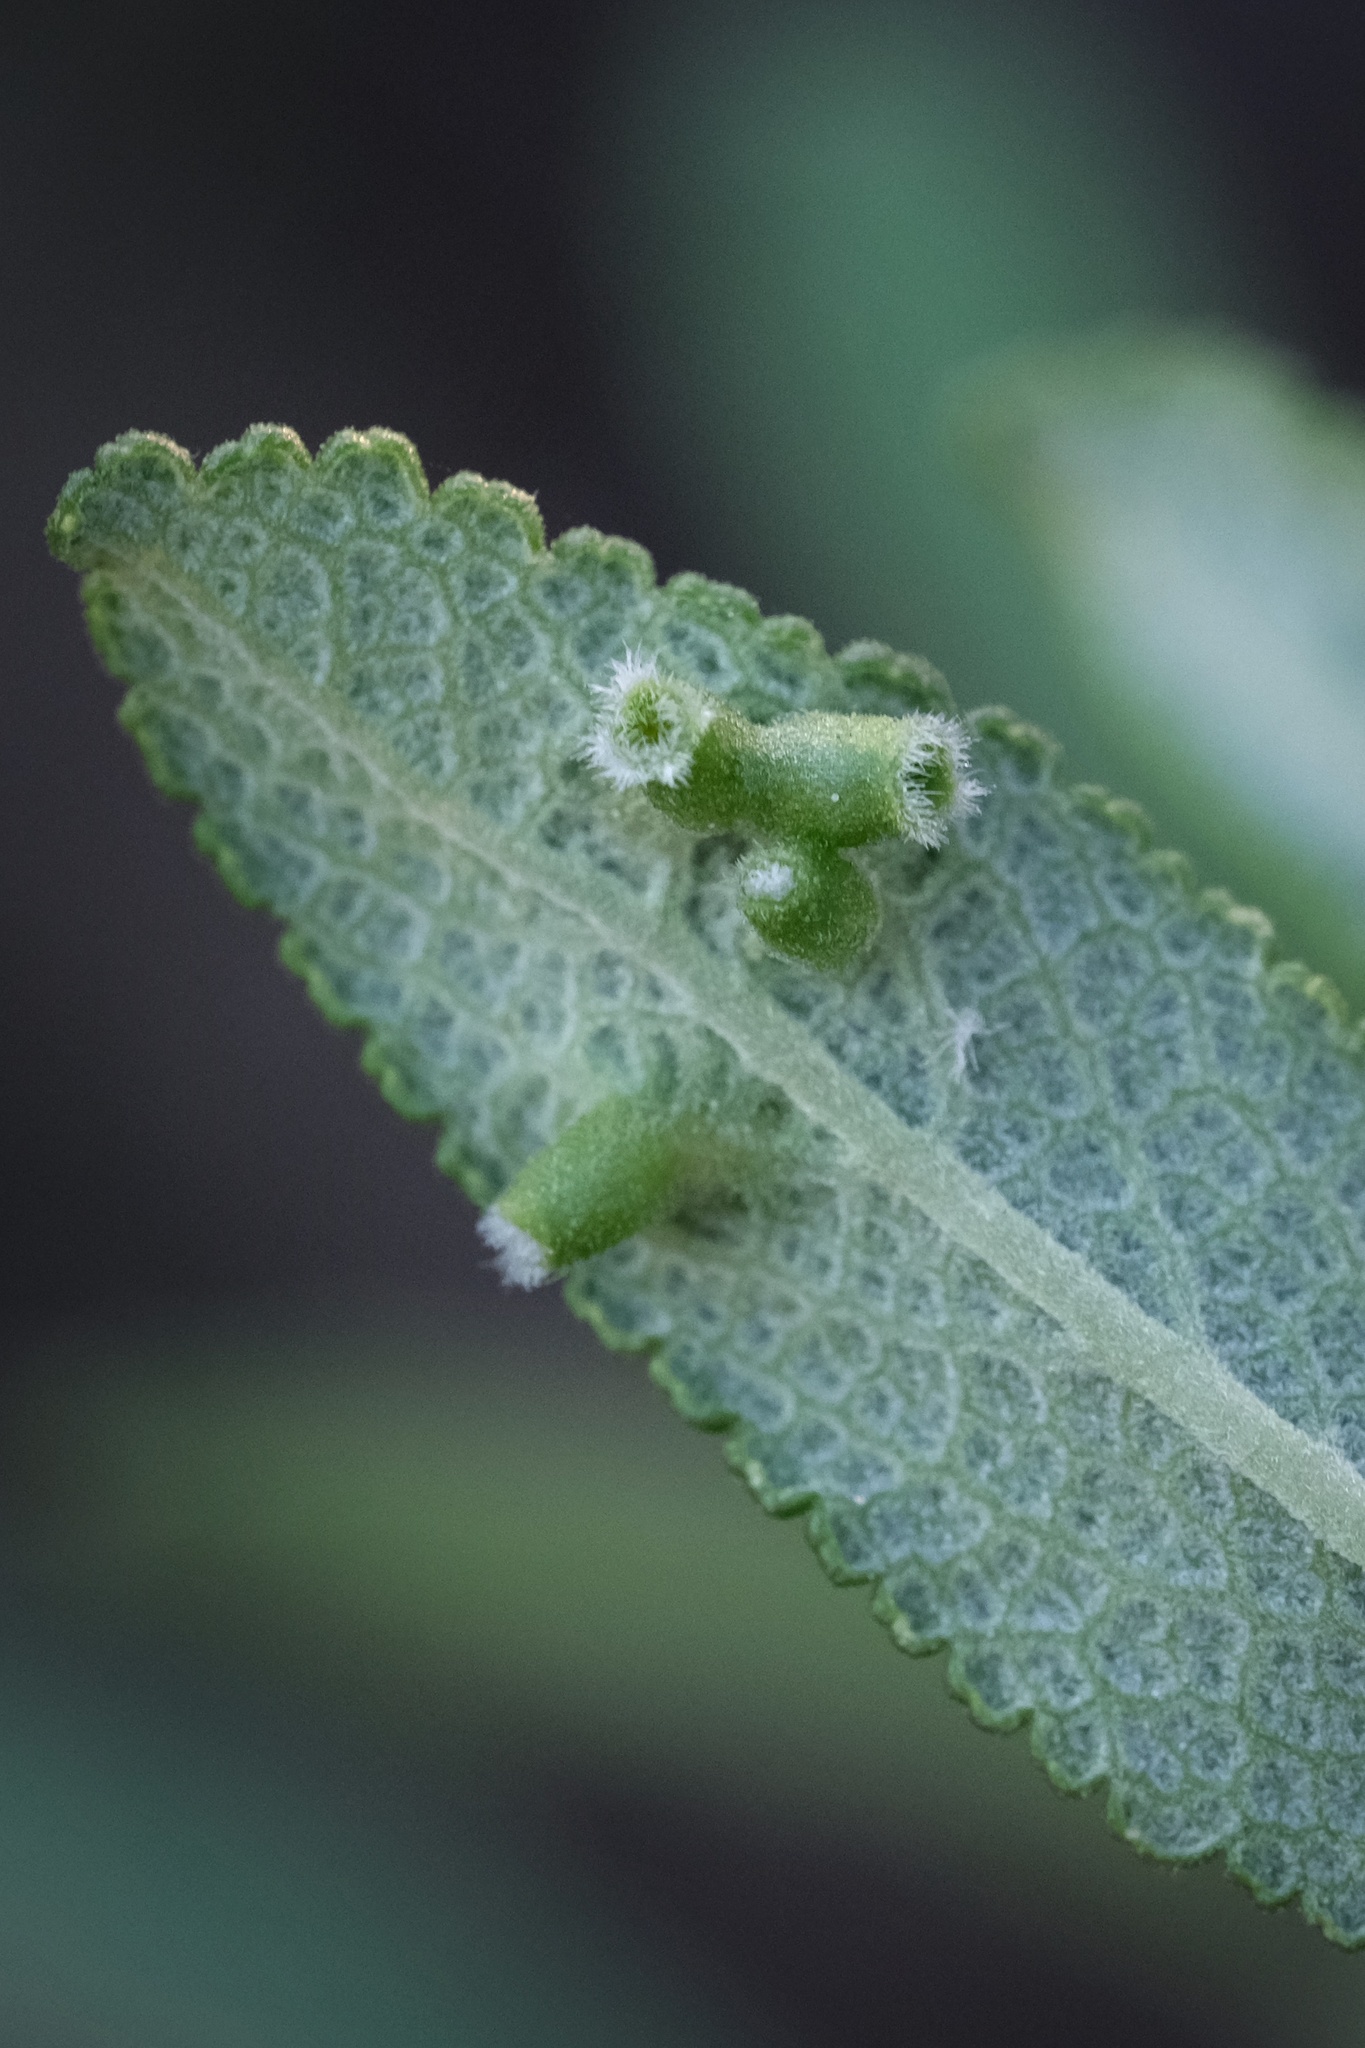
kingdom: Animalia
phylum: Arthropoda
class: Insecta
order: Diptera
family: Cecidomyiidae
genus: Rhopalomyia
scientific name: Rhopalomyia audibertiae
